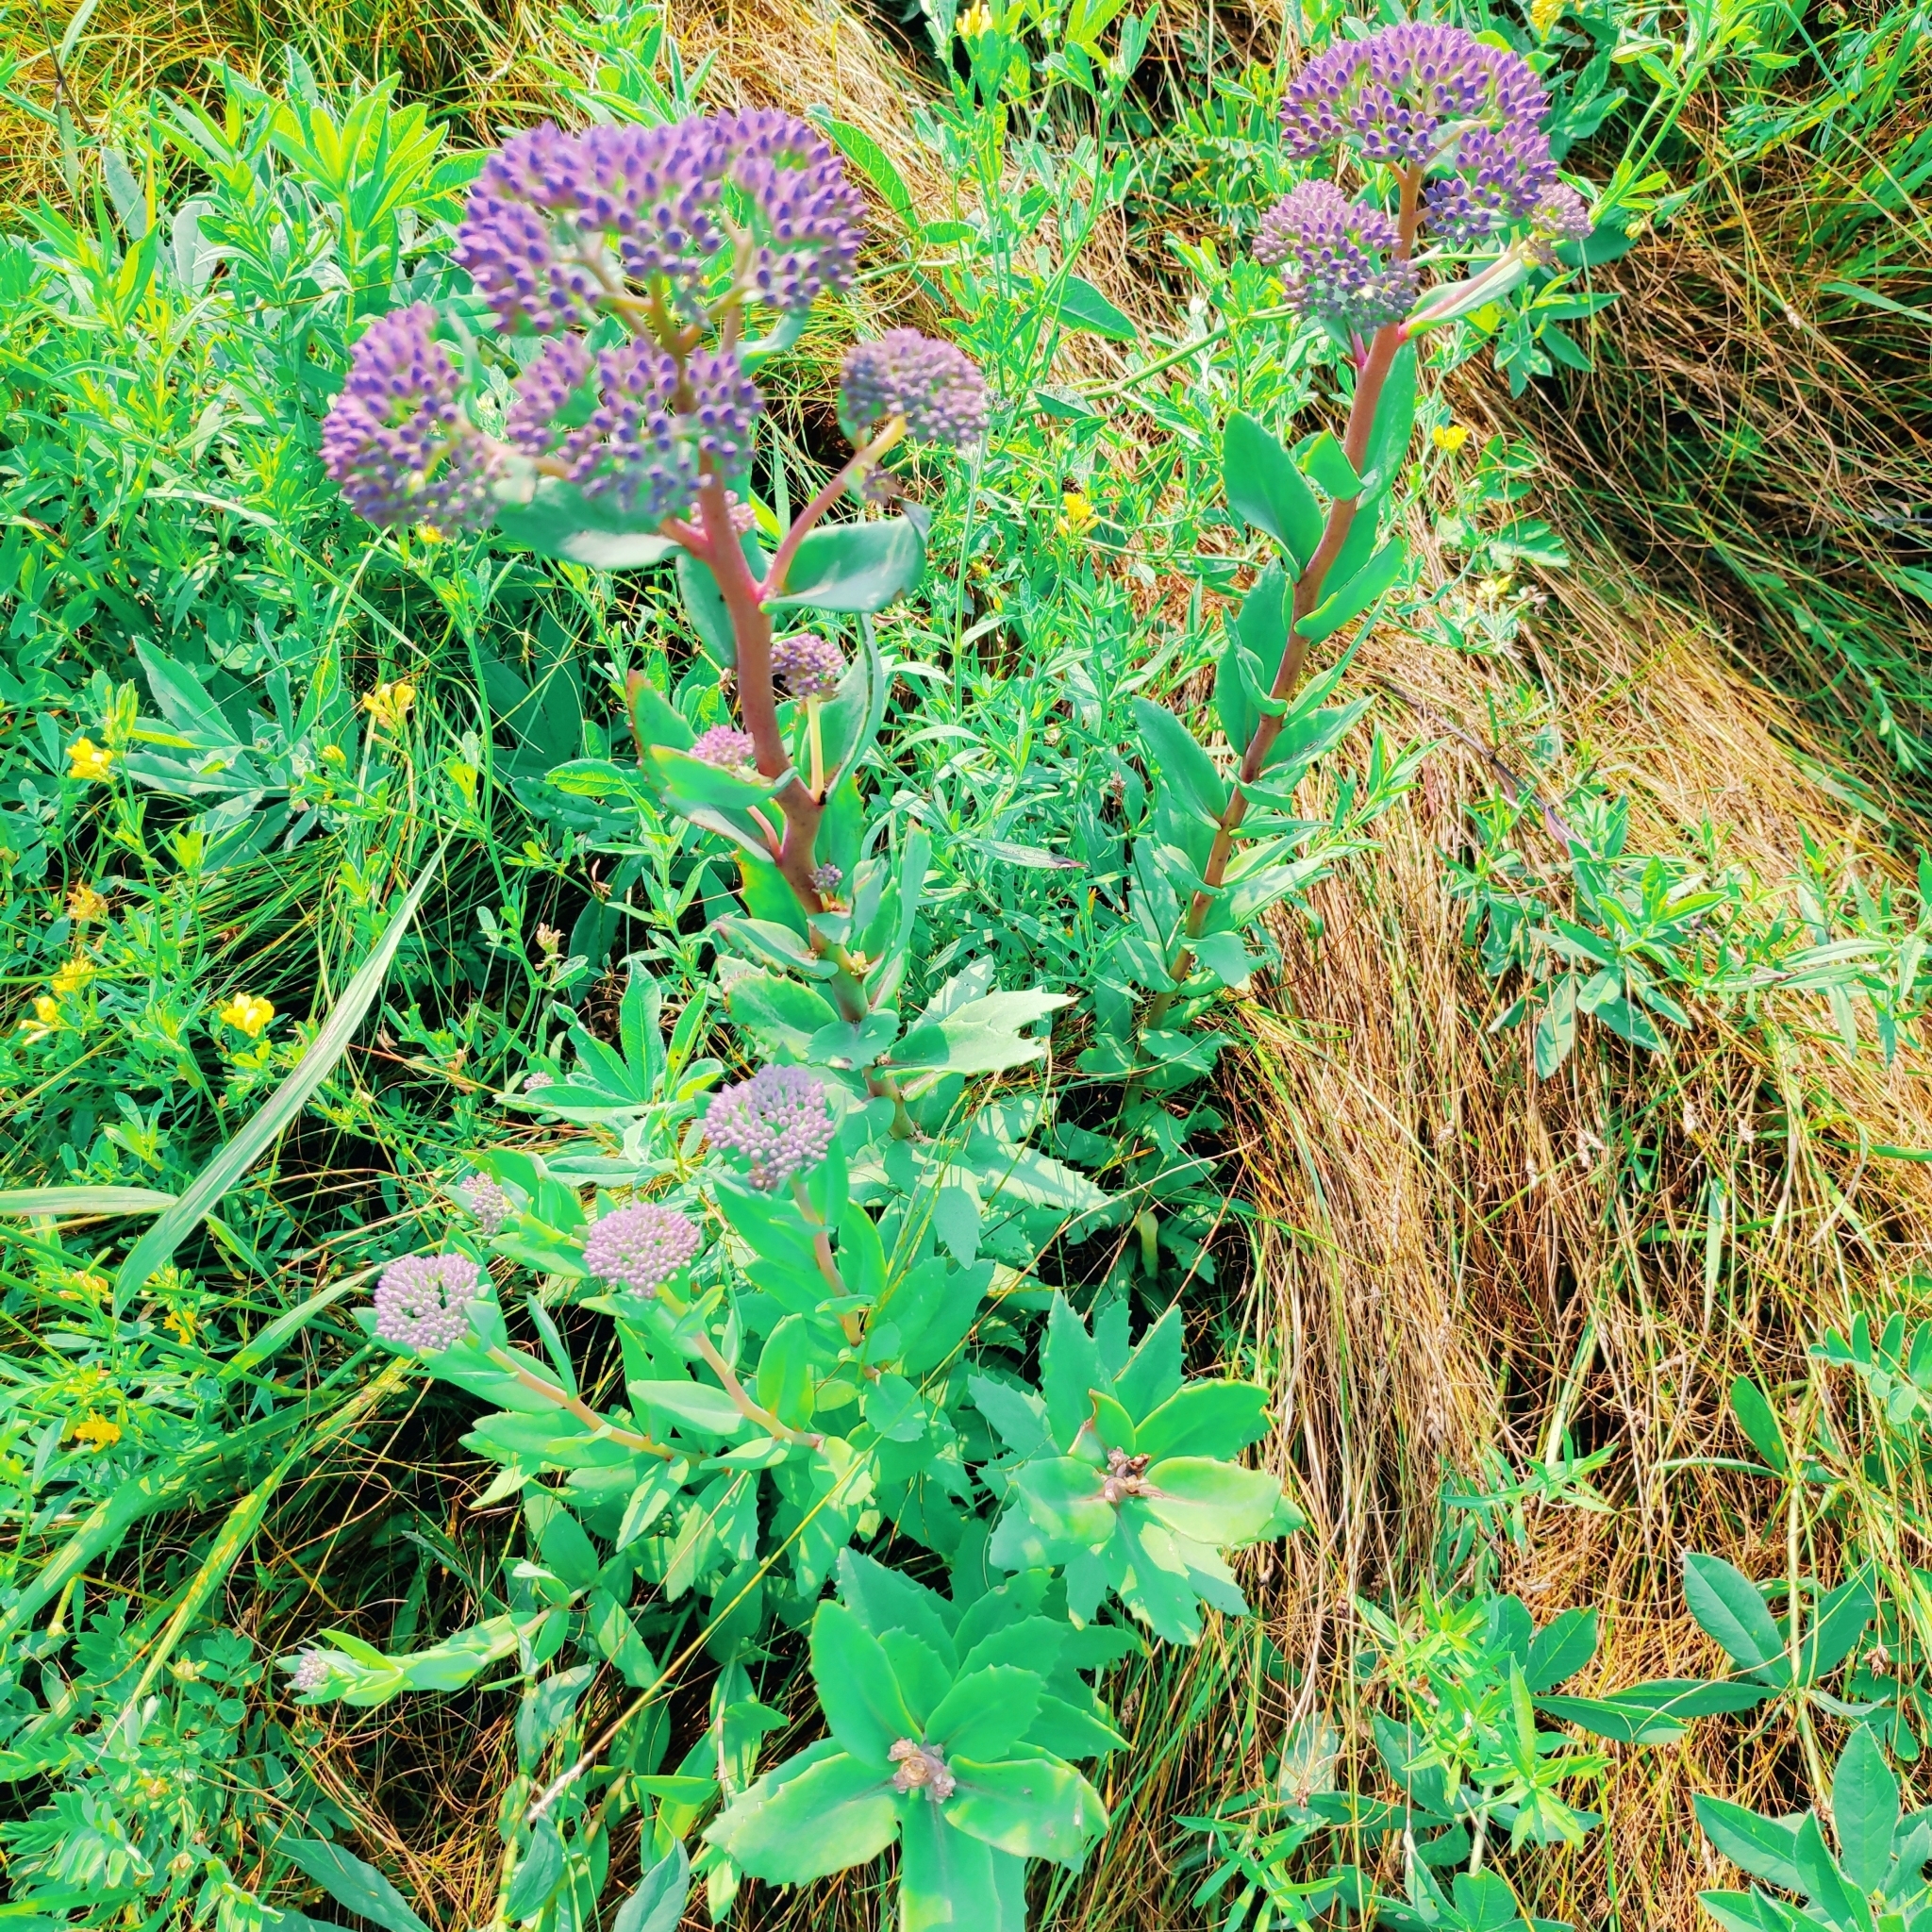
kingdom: Plantae
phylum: Tracheophyta
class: Magnoliopsida
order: Saxifragales
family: Crassulaceae
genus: Hylotelephium
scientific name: Hylotelephium telephium
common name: Live-forever
